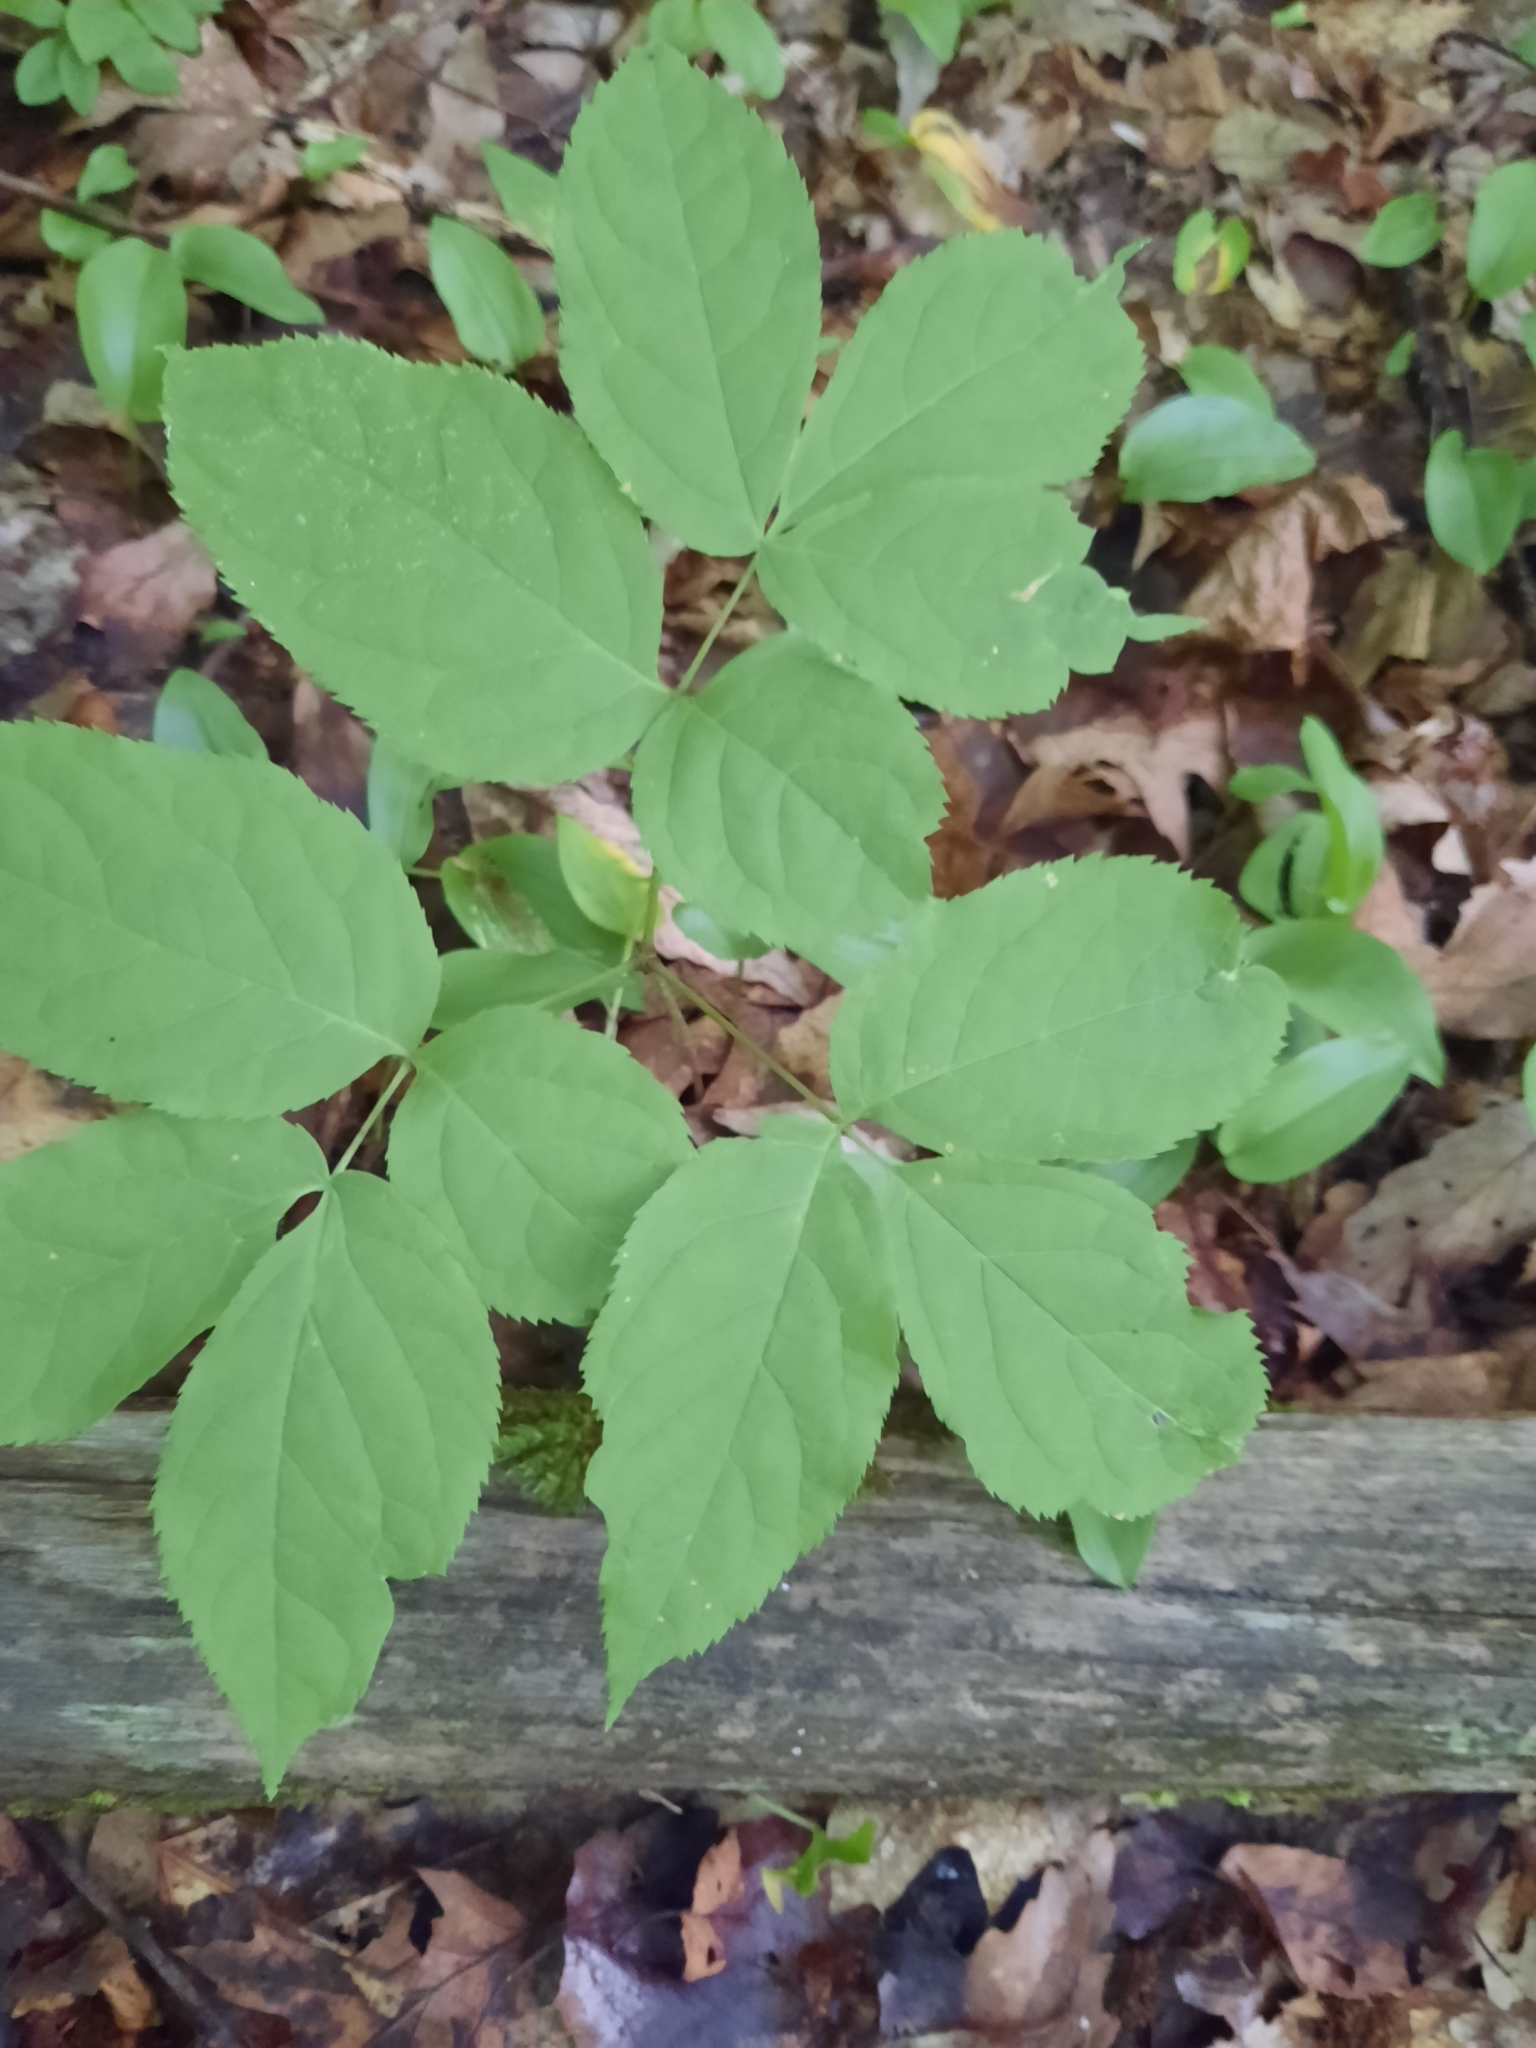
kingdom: Plantae
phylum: Tracheophyta
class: Magnoliopsida
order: Apiales
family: Araliaceae
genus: Aralia
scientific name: Aralia nudicaulis
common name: Wild sarsaparilla
